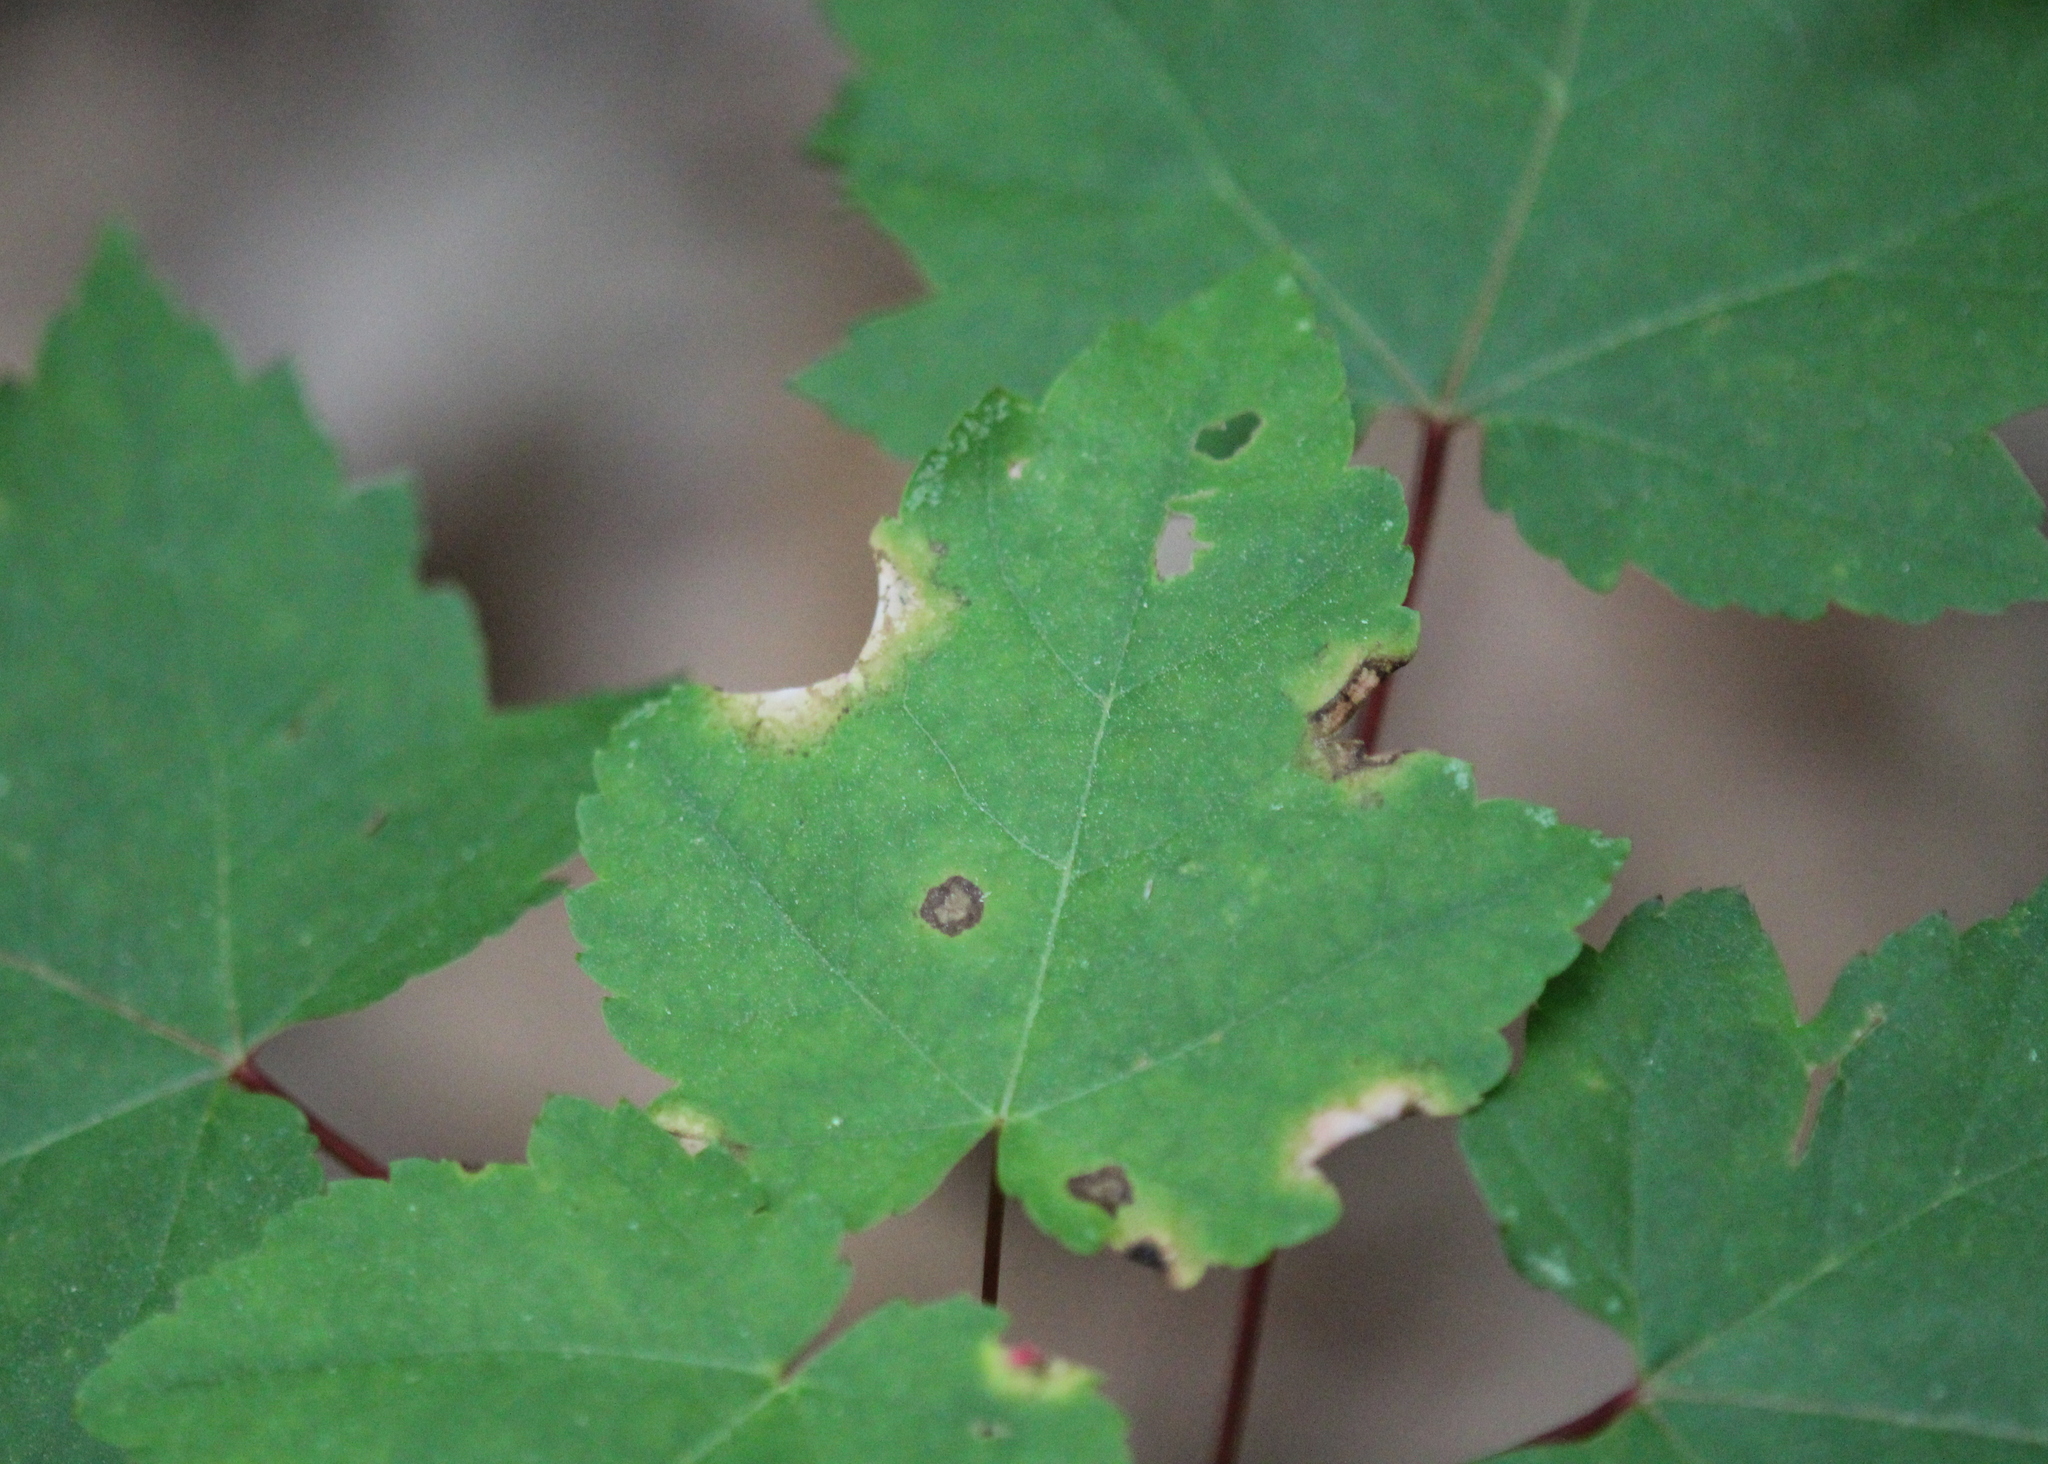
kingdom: Plantae
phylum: Tracheophyta
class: Magnoliopsida
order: Sapindales
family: Sapindaceae
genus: Acer
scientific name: Acer rubrum
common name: Red maple
